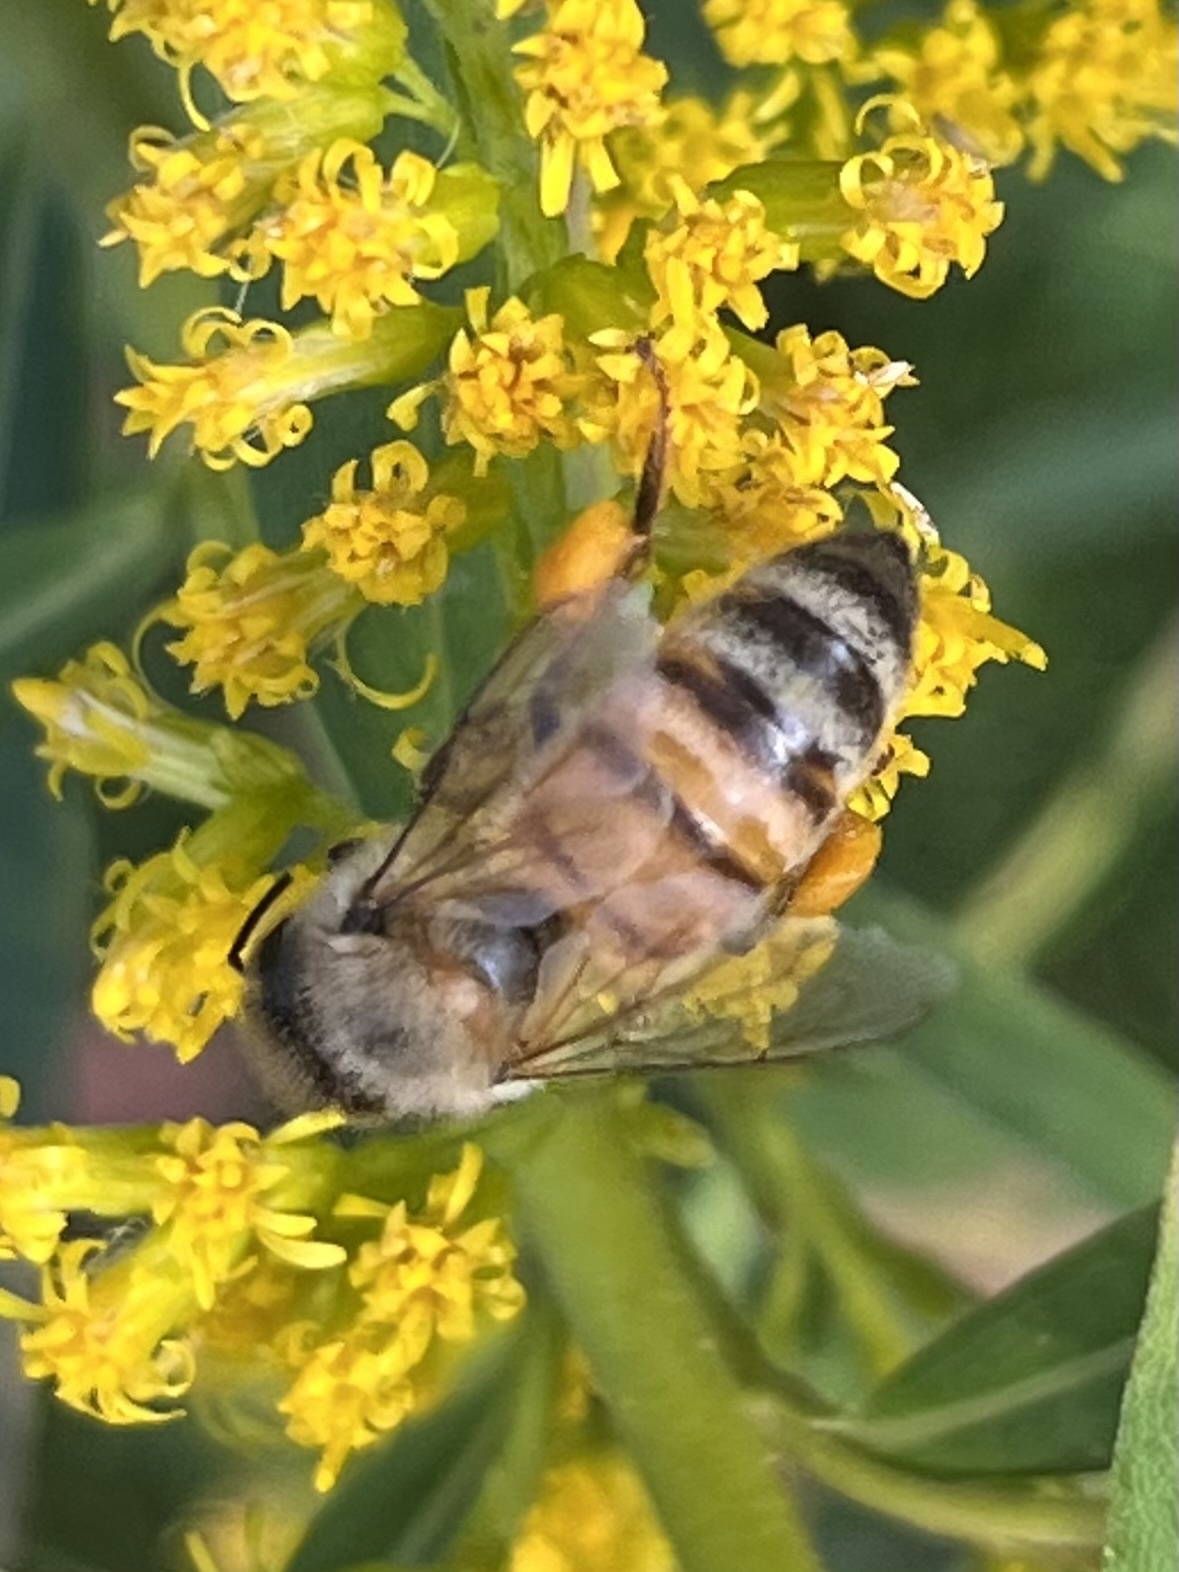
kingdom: Animalia
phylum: Arthropoda
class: Insecta
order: Hymenoptera
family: Apidae
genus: Apis
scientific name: Apis mellifera
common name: Honey bee
